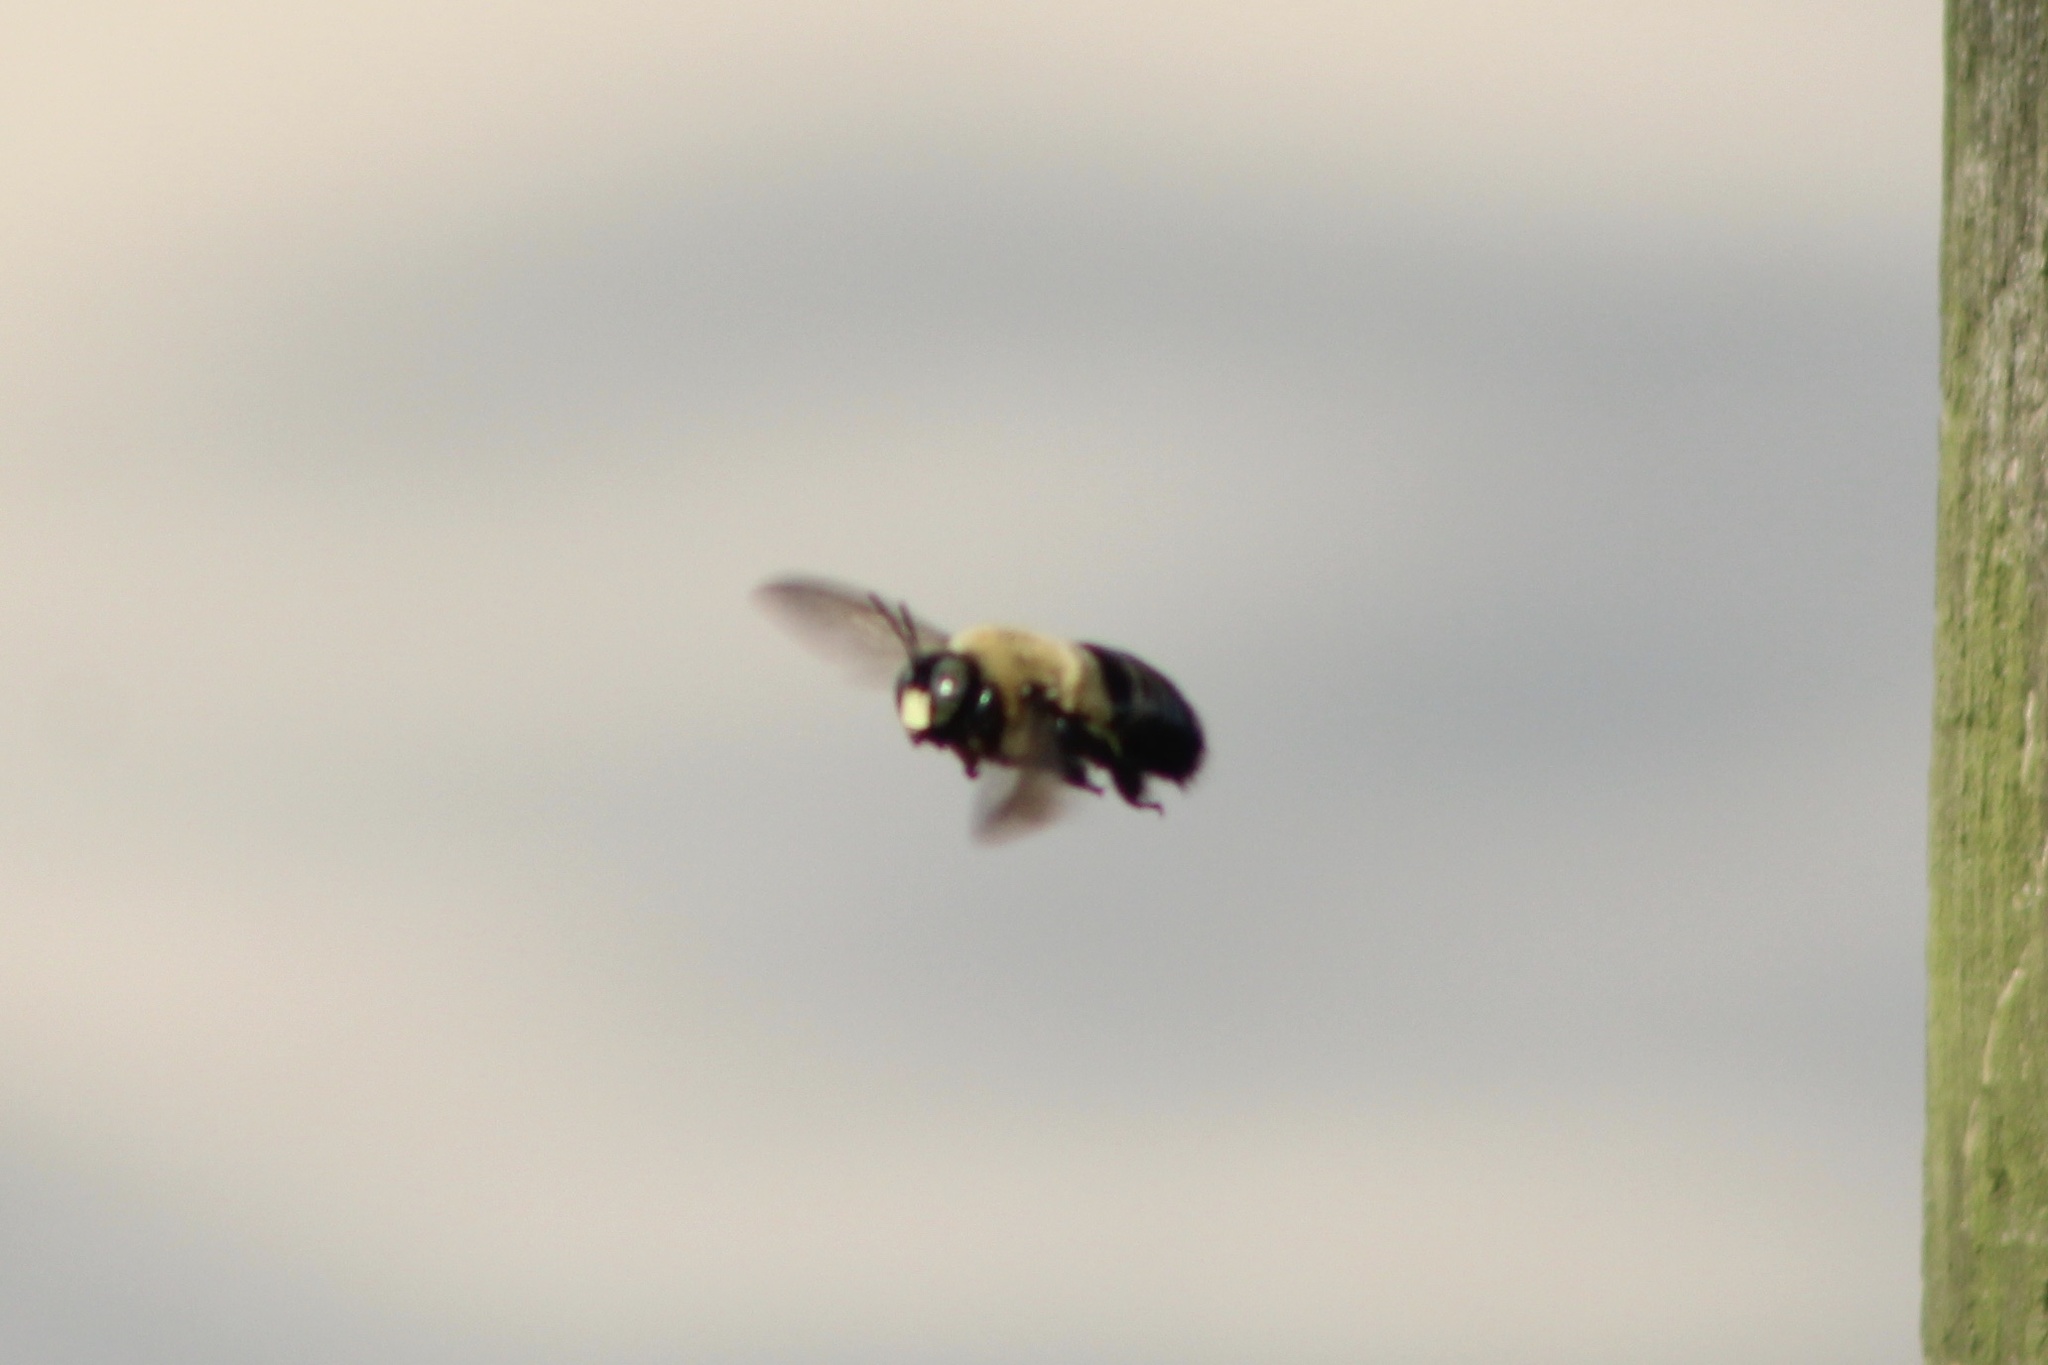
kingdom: Animalia
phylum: Arthropoda
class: Insecta
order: Hymenoptera
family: Apidae
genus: Xylocopa
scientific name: Xylocopa virginica
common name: Carpenter bee
